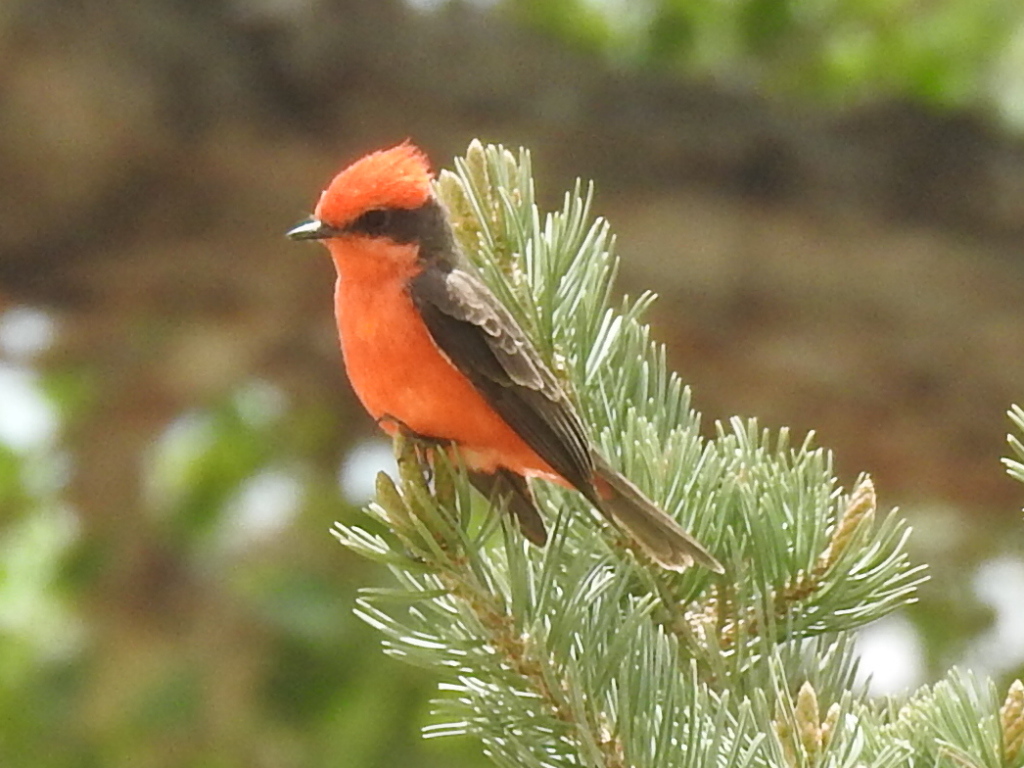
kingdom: Animalia
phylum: Chordata
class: Aves
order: Passeriformes
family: Tyrannidae
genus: Pyrocephalus
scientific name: Pyrocephalus rubinus
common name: Vermilion flycatcher
